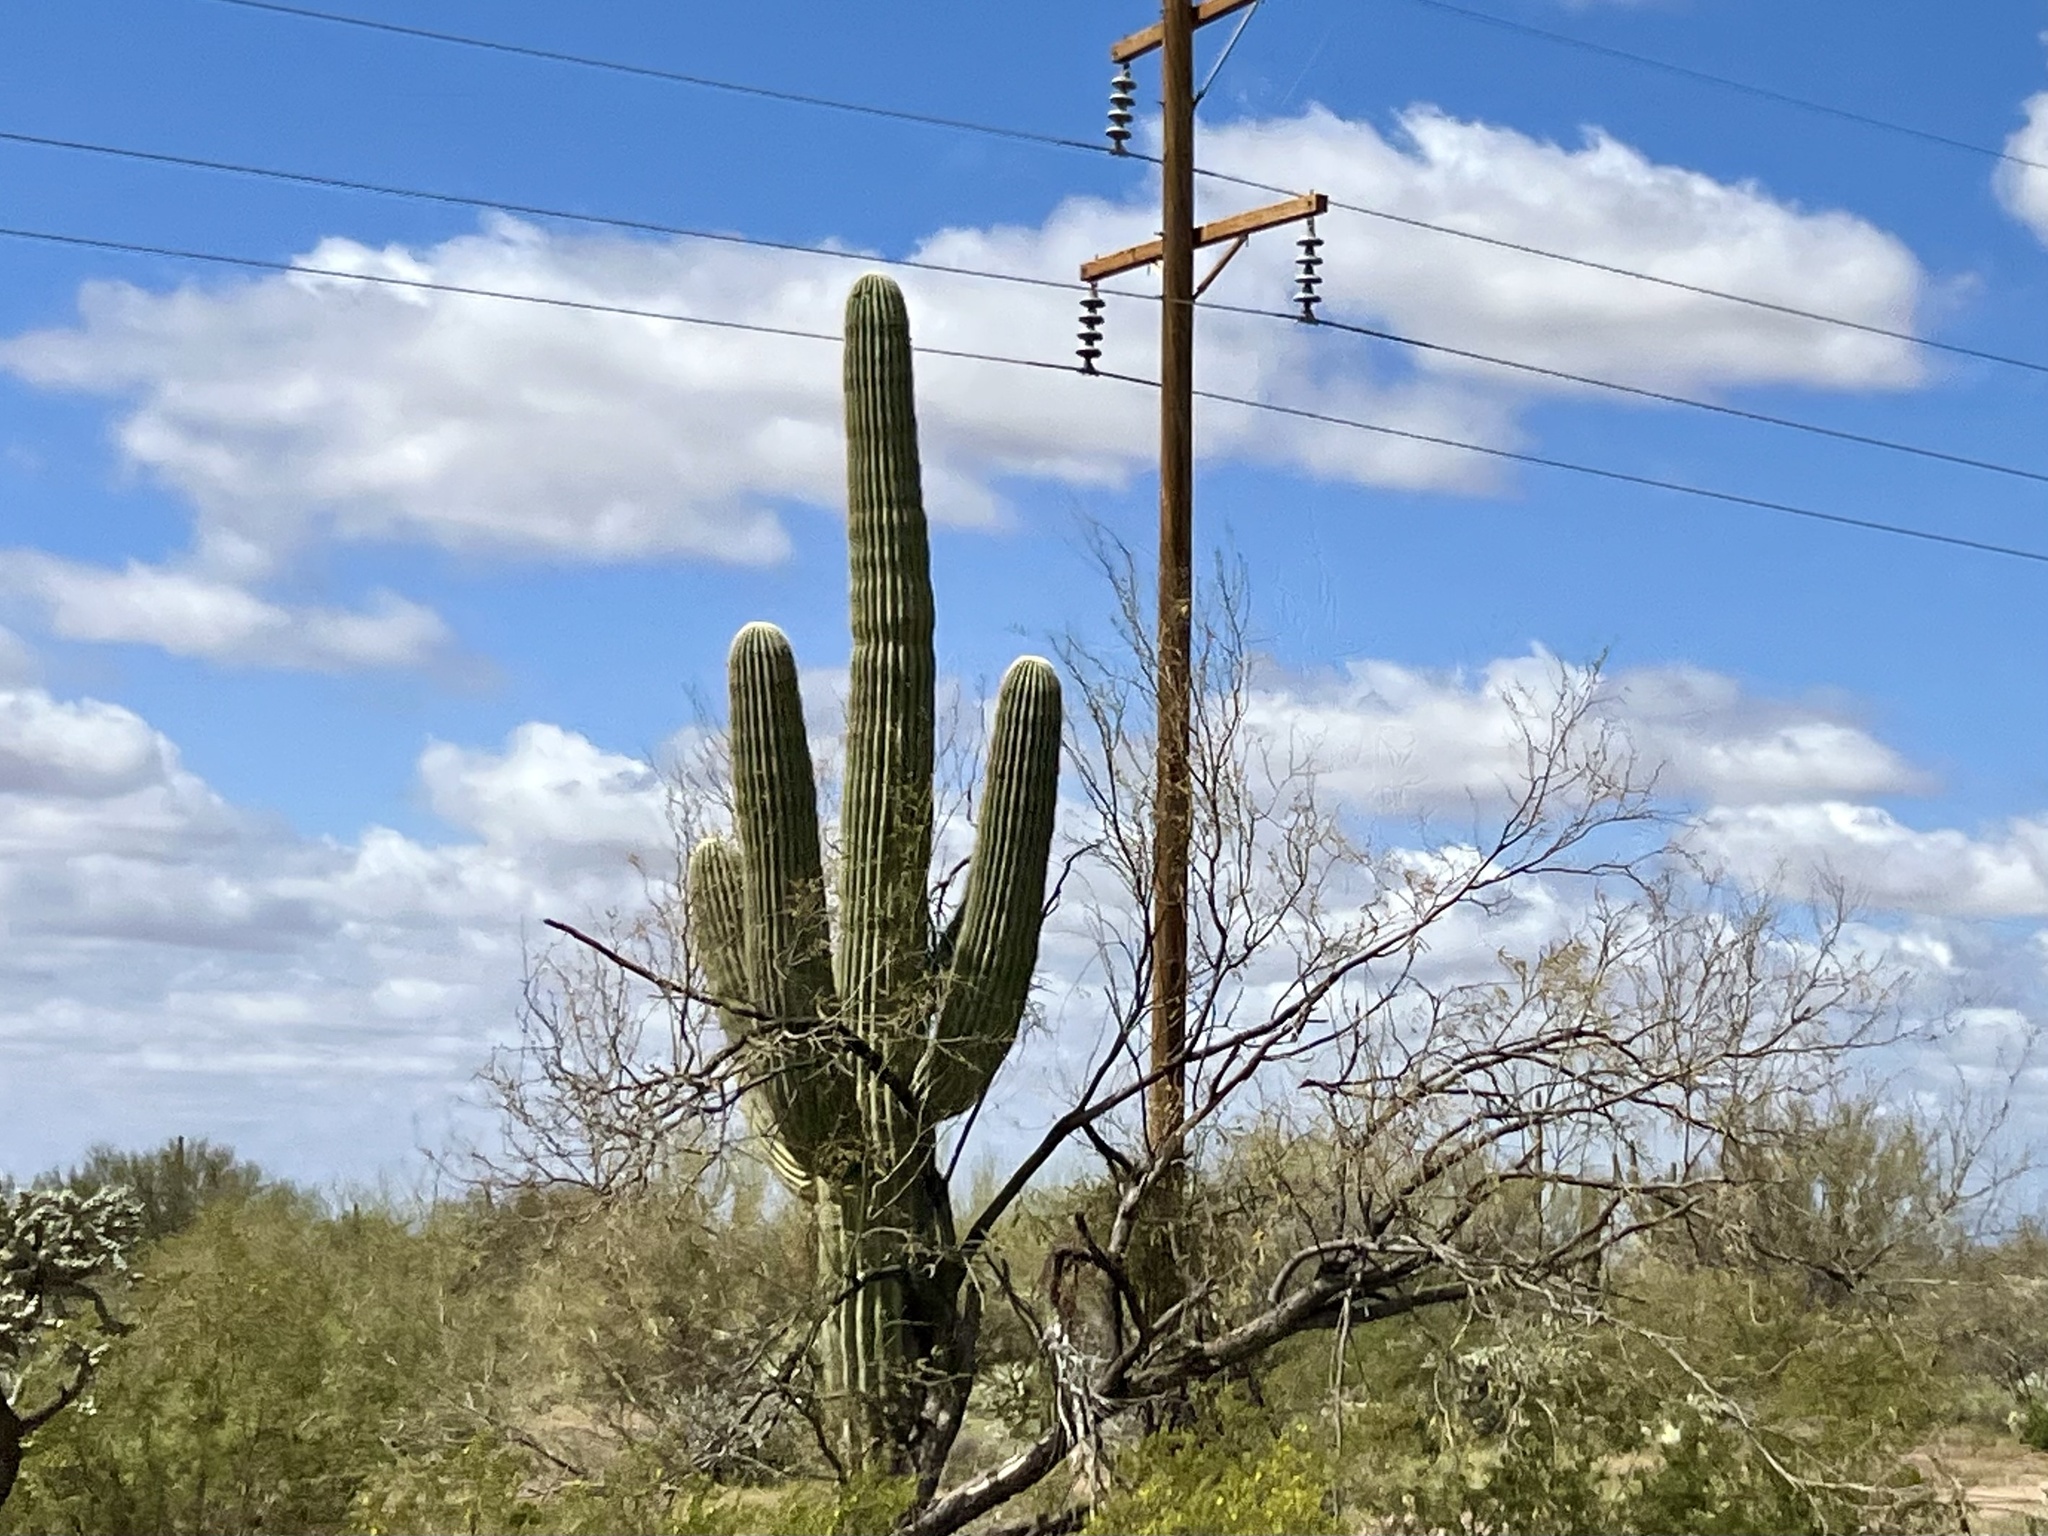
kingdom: Plantae
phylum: Tracheophyta
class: Magnoliopsida
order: Caryophyllales
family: Cactaceae
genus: Carnegiea
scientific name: Carnegiea gigantea
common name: Saguaro
